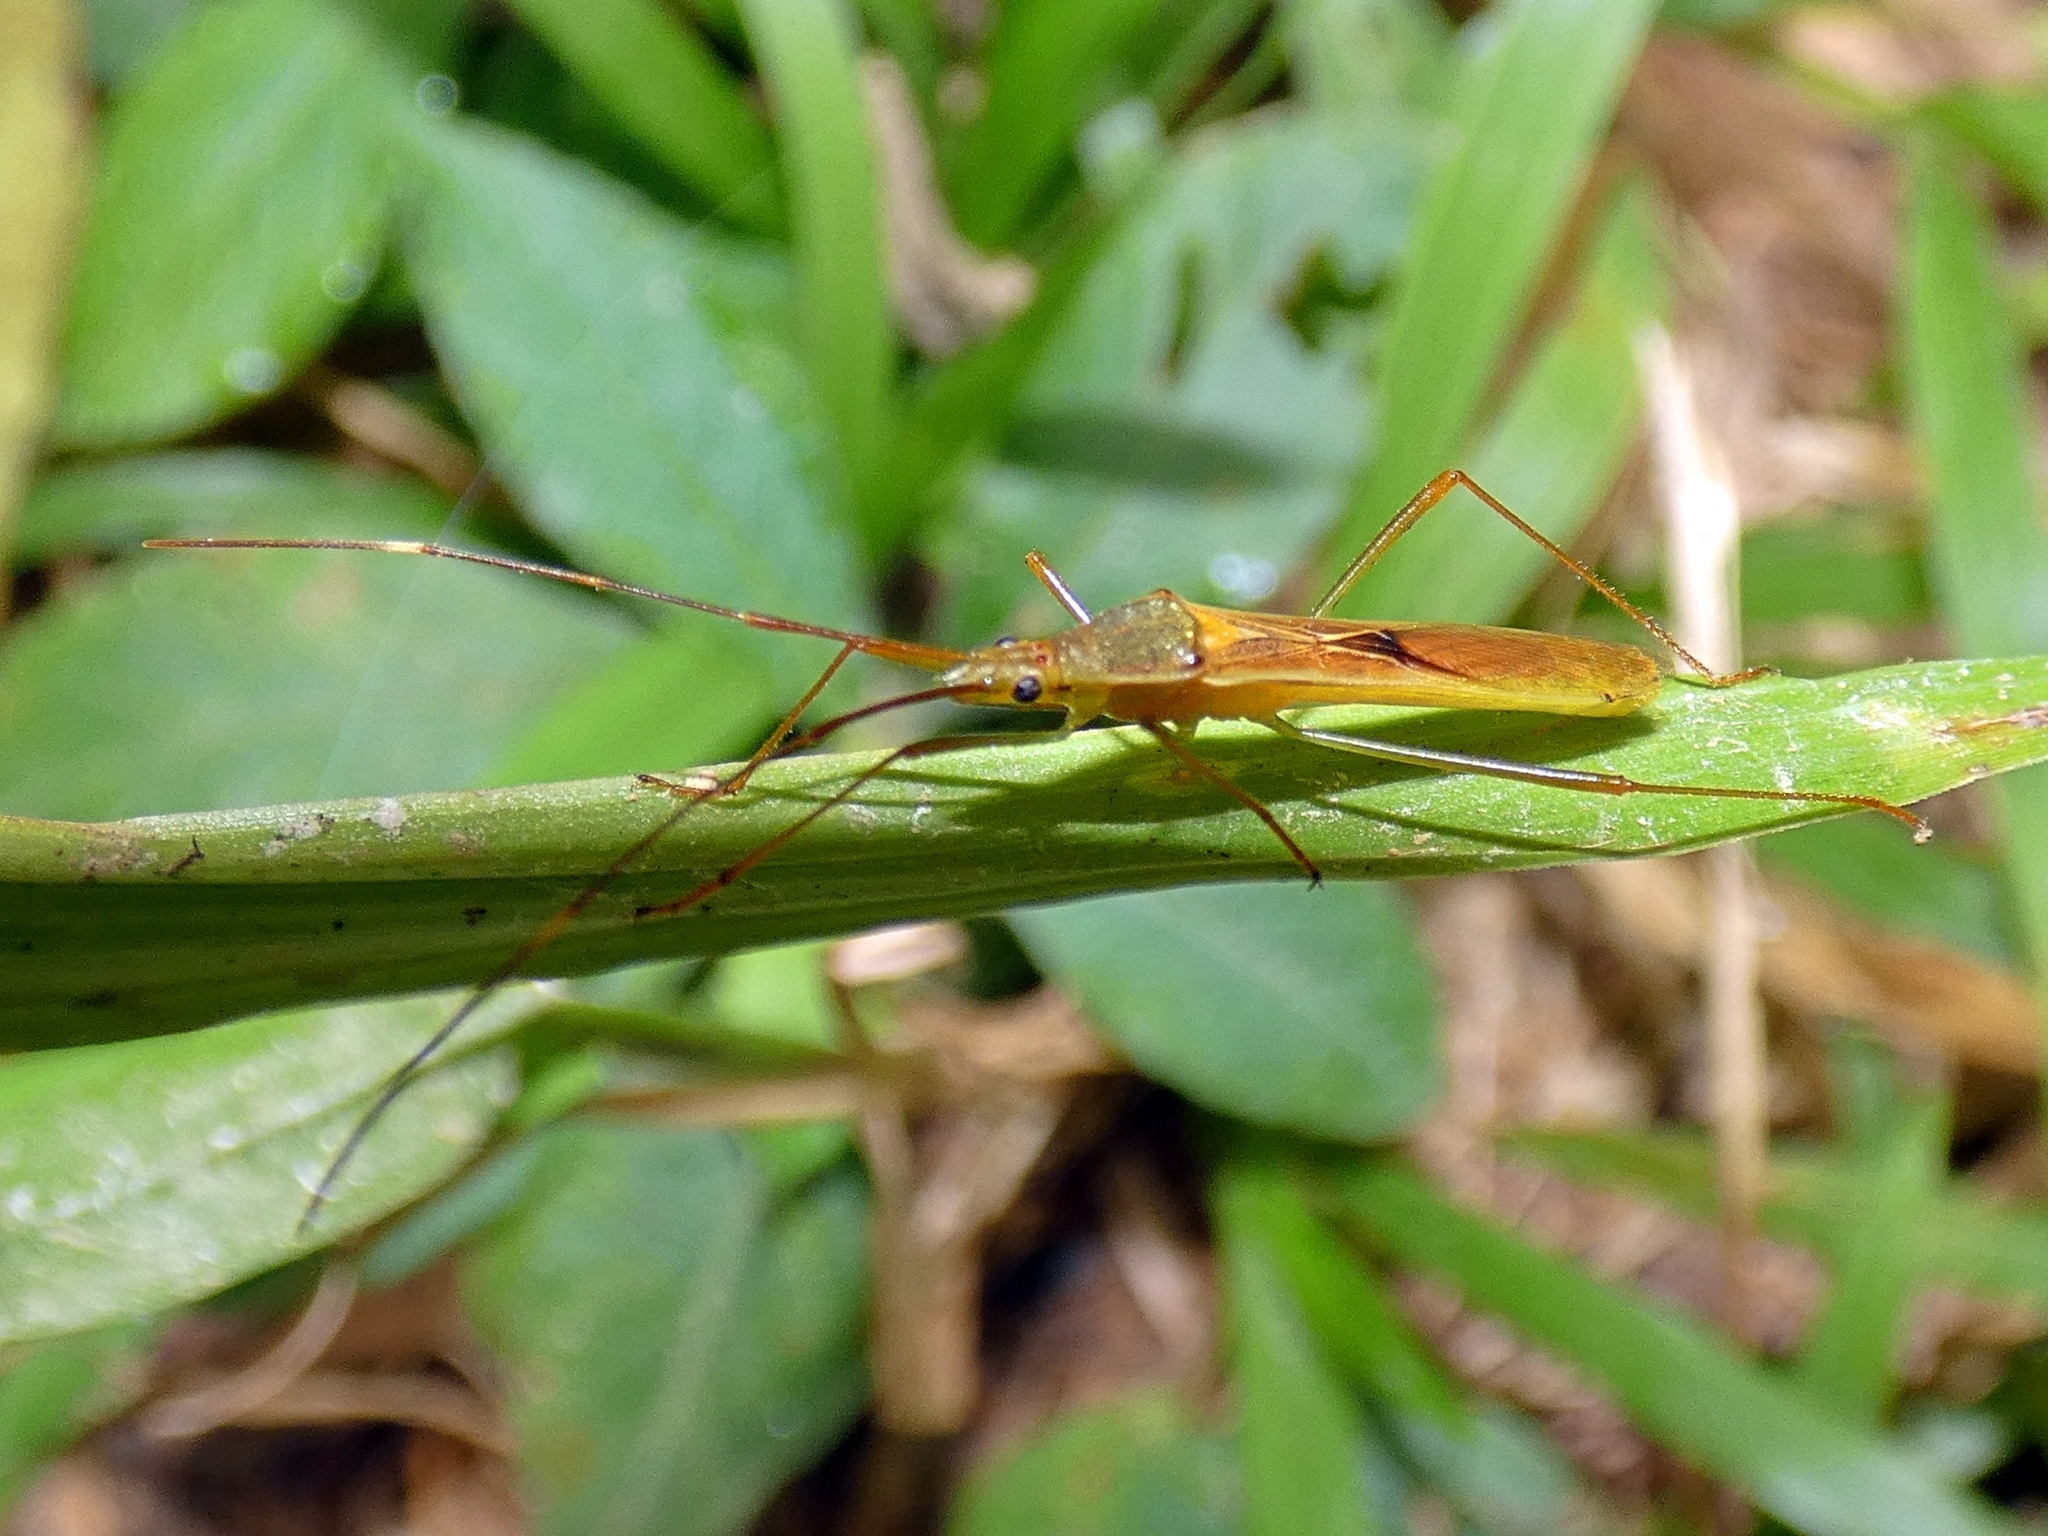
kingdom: Animalia
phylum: Arthropoda
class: Insecta
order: Hemiptera
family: Alydidae
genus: Leptocorisa
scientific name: Leptocorisa acuta
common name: Gandhi bug
